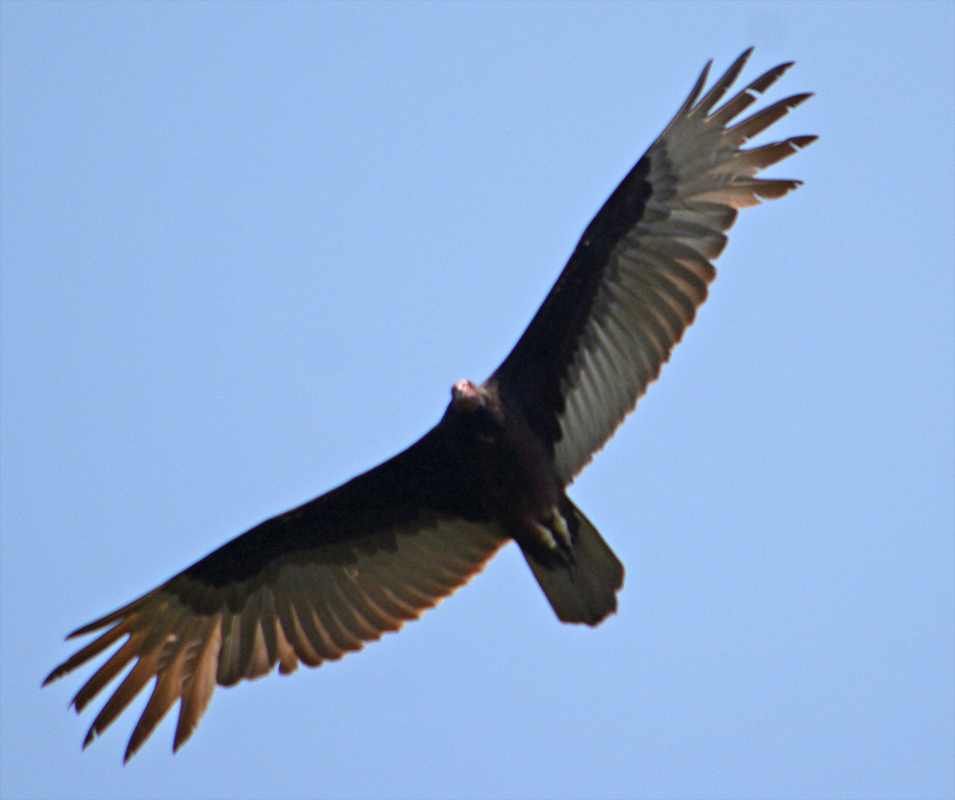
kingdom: Animalia
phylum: Chordata
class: Aves
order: Accipitriformes
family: Cathartidae
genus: Cathartes
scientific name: Cathartes aura
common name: Turkey vulture
